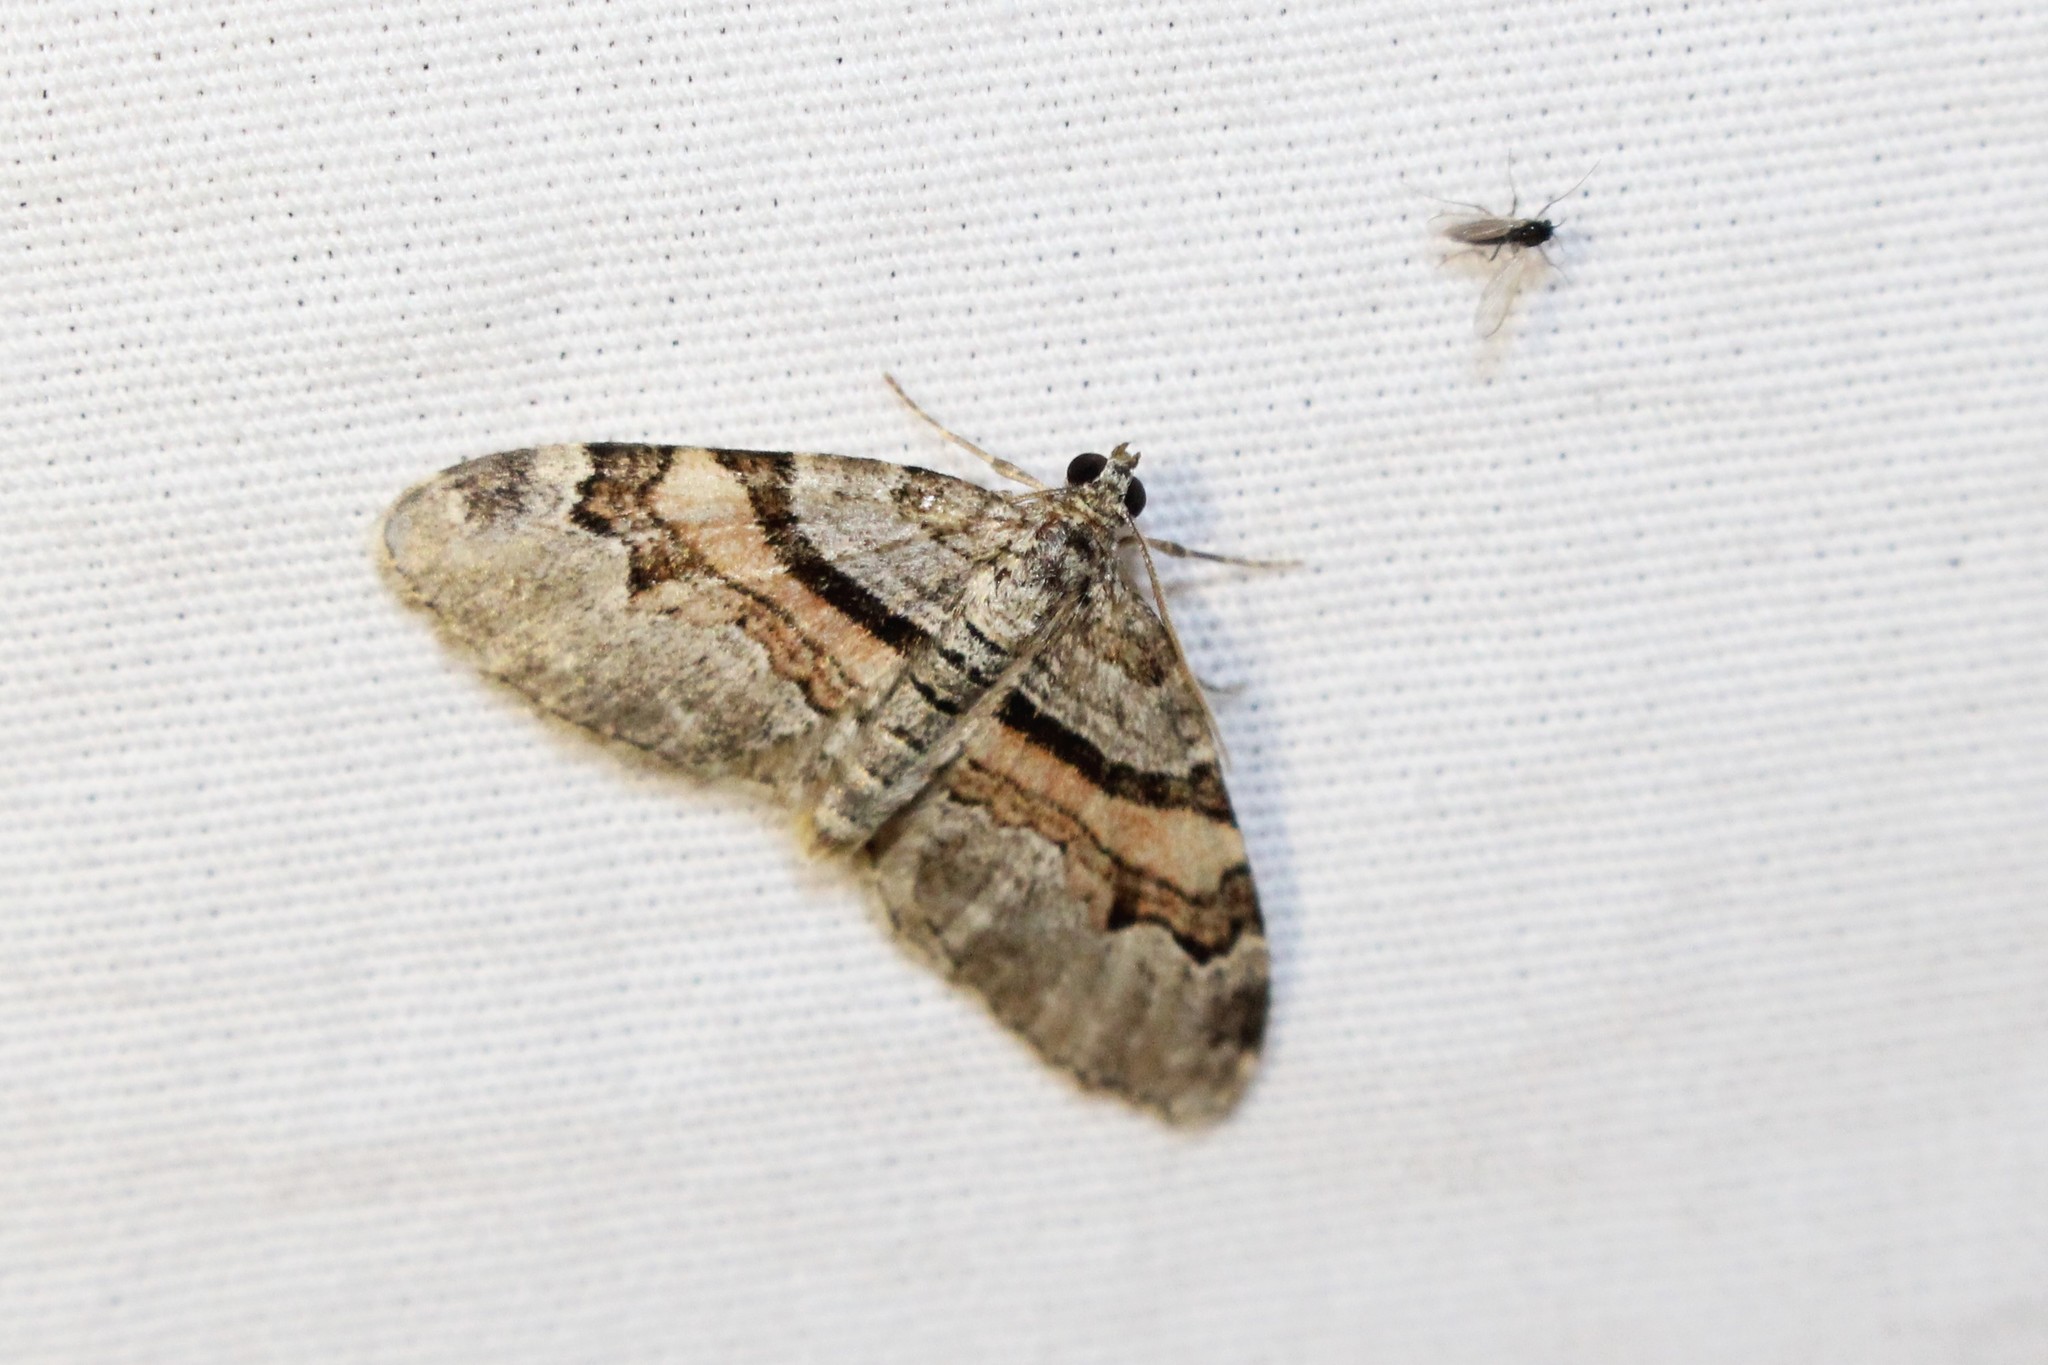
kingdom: Animalia
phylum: Arthropoda
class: Insecta
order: Lepidoptera
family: Geometridae
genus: Xanthorhoe
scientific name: Xanthorhoe labradorensis
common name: Labrador carpet
